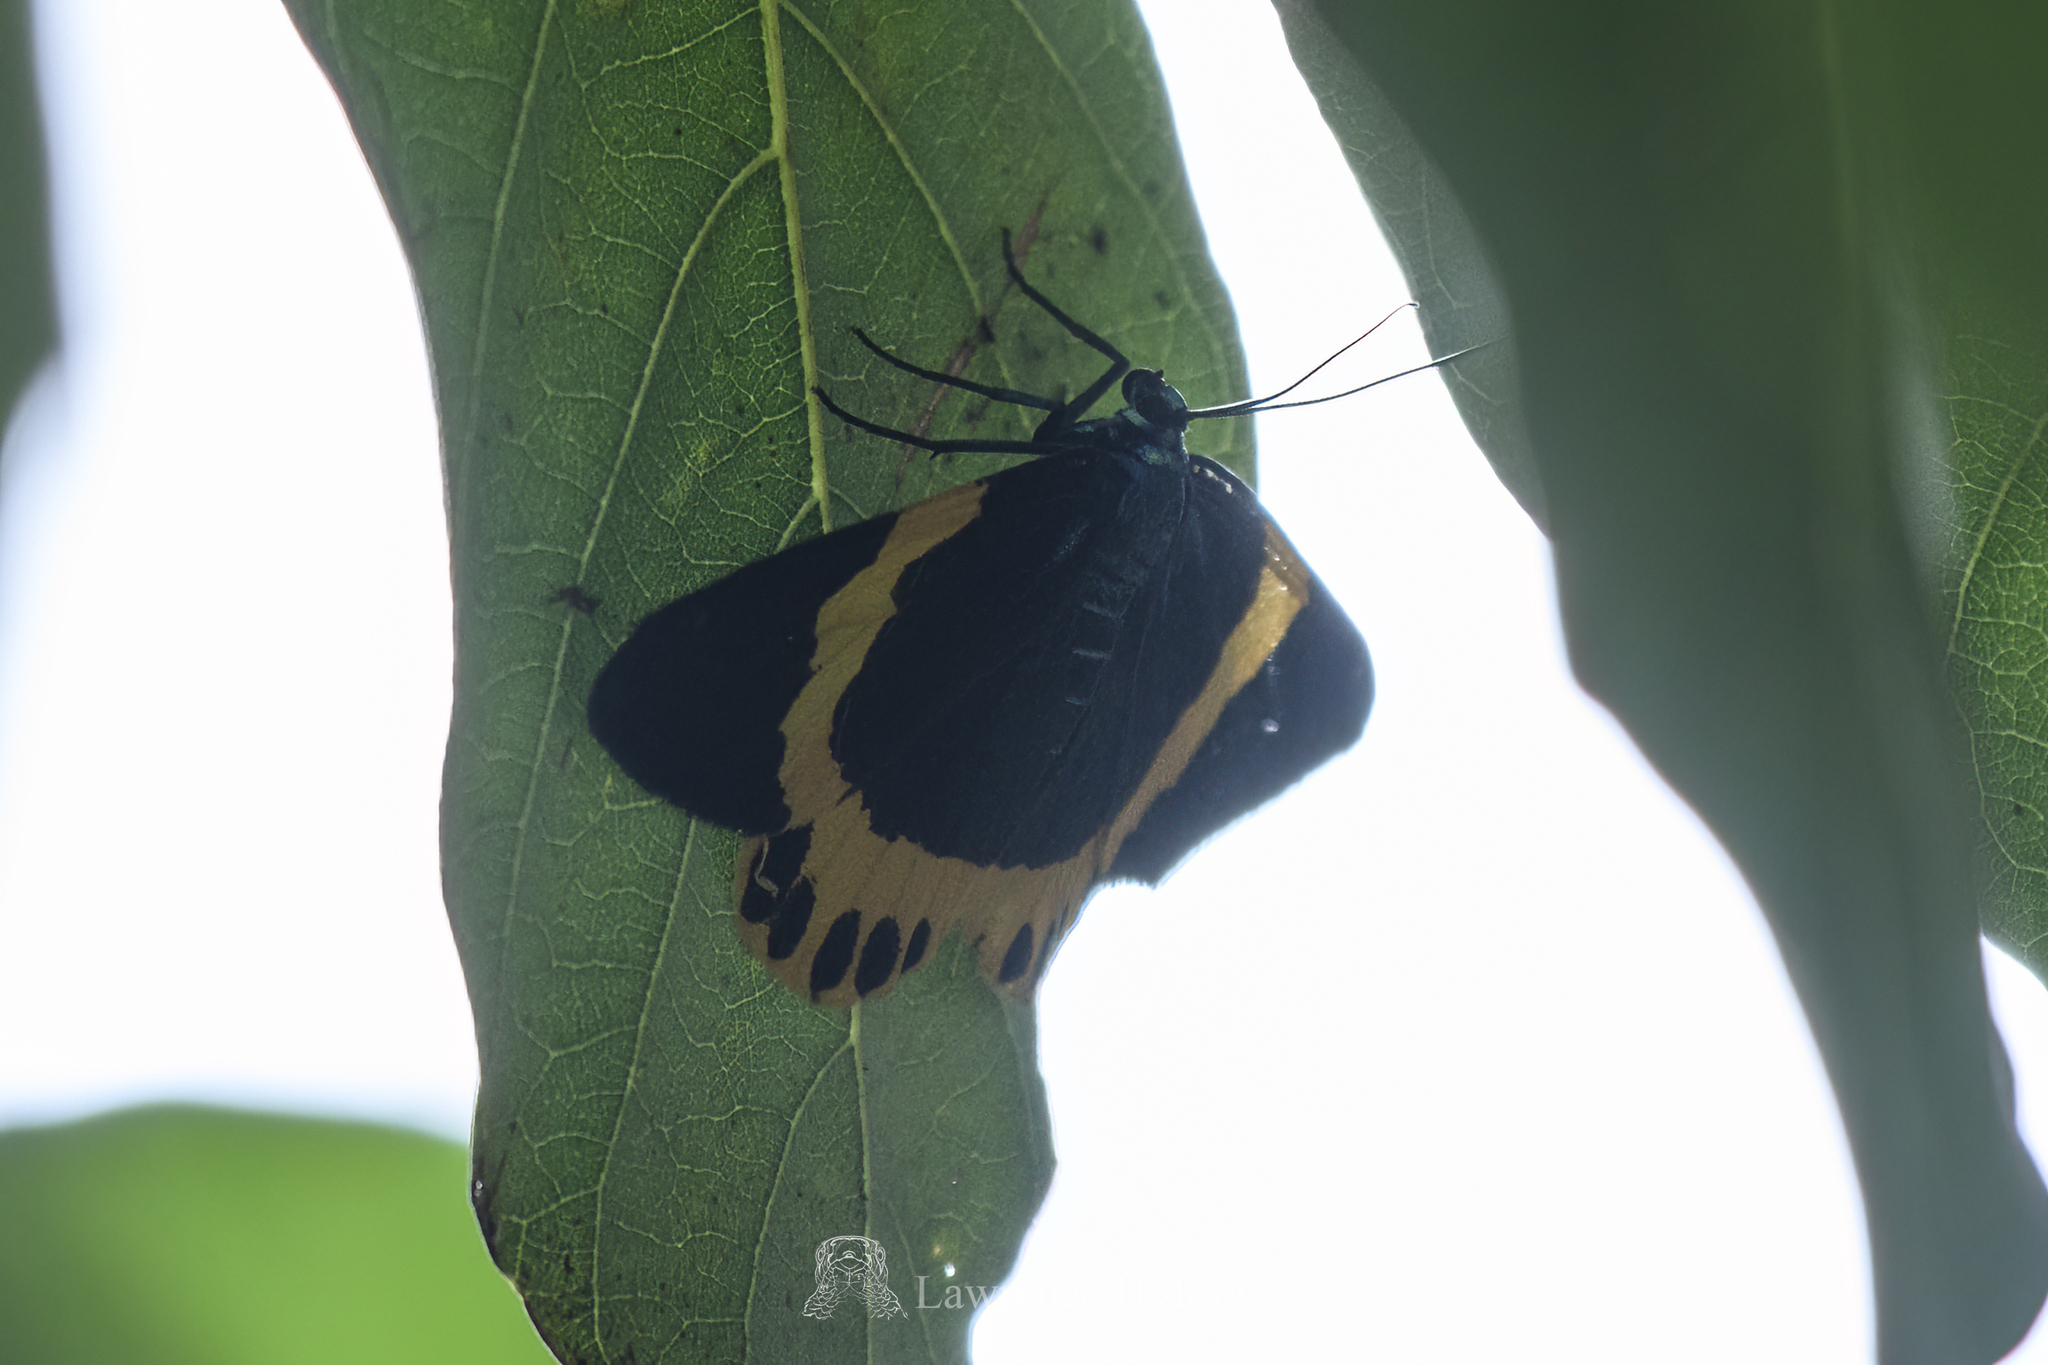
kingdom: Animalia
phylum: Arthropoda
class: Insecta
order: Lepidoptera
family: Geometridae
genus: Milionia
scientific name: Milionia basalis
